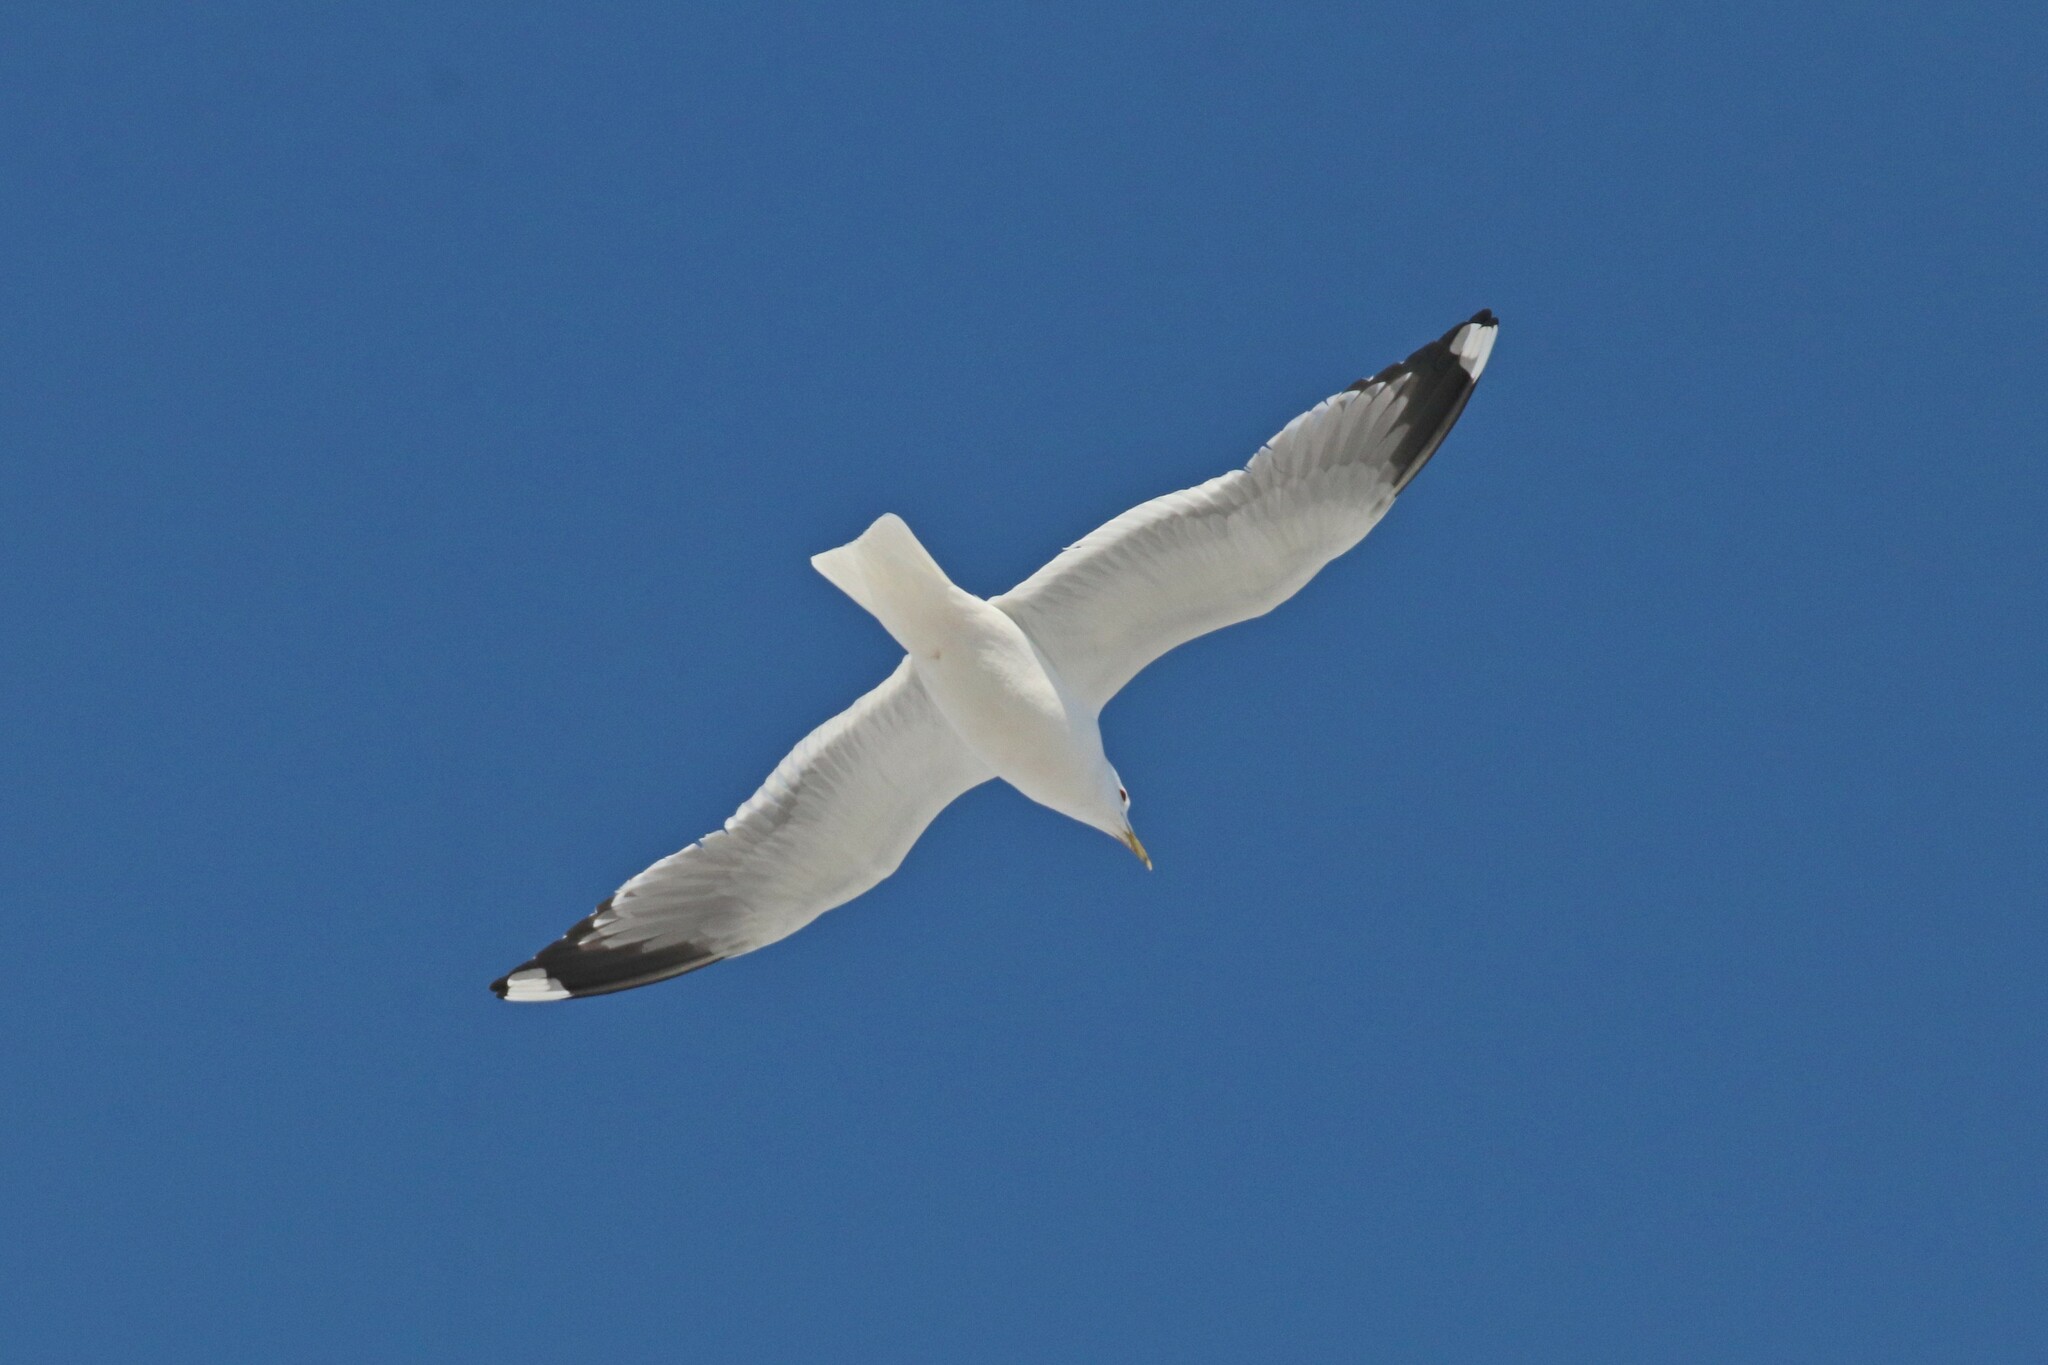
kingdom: Animalia
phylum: Chordata
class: Aves
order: Charadriiformes
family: Laridae
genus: Larus
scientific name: Larus canus
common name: Mew gull
